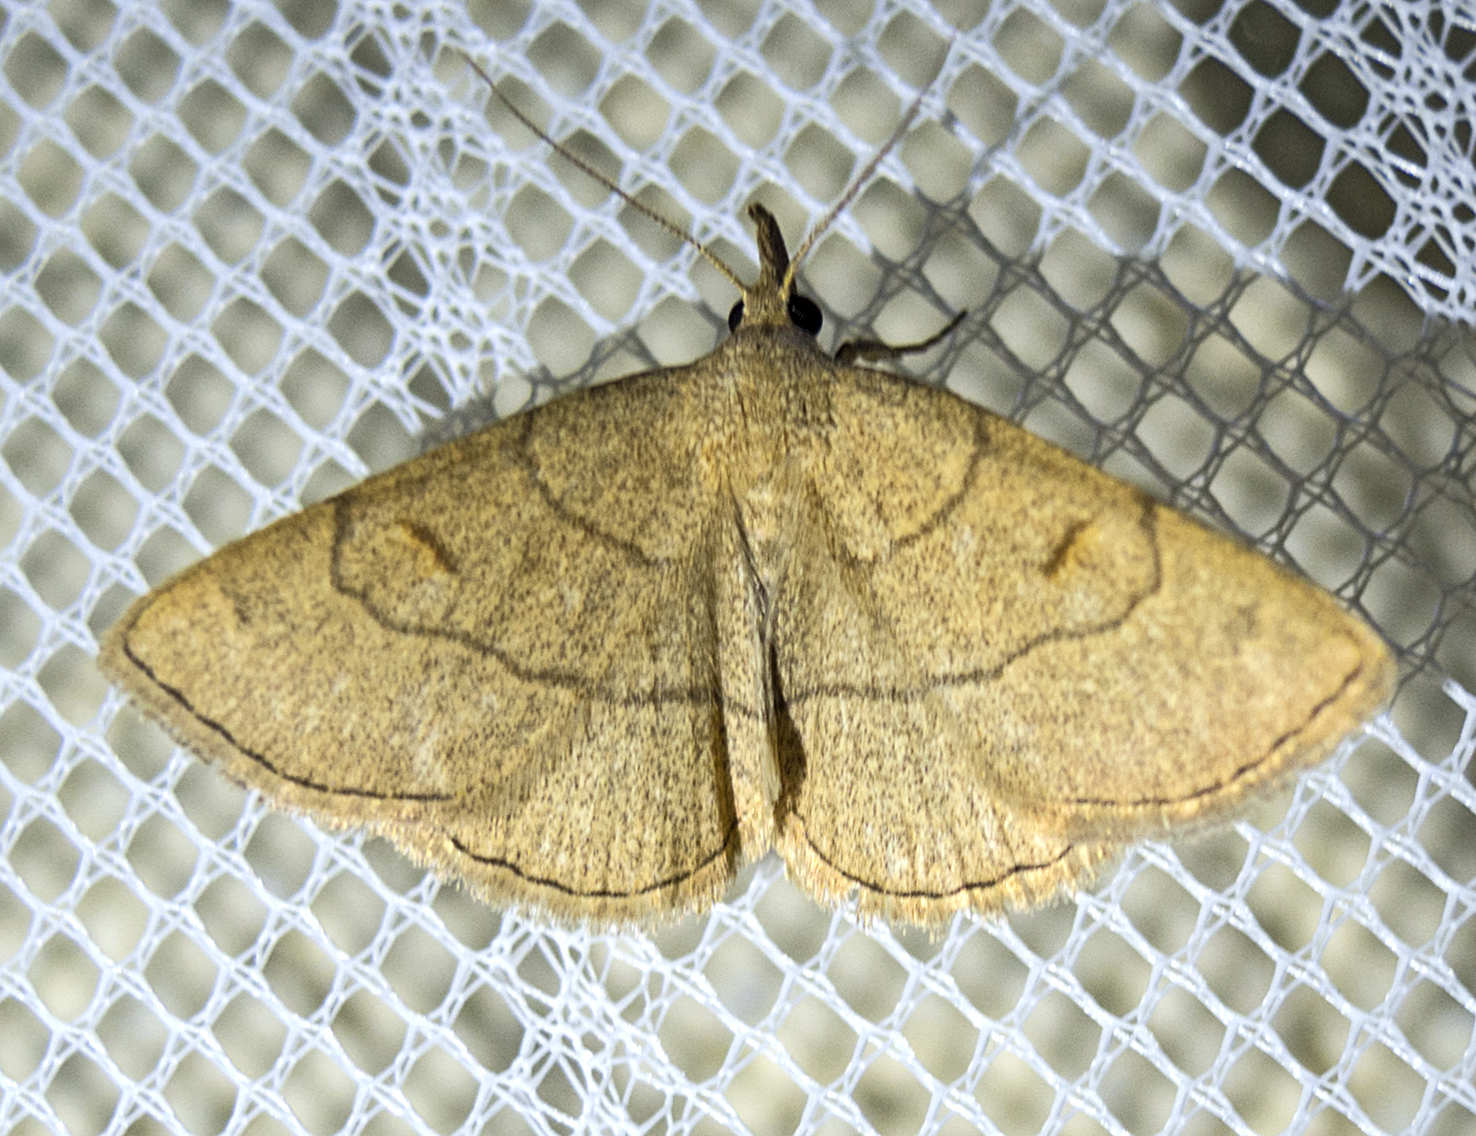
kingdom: Animalia
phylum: Arthropoda
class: Insecta
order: Lepidoptera
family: Erebidae
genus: Paracolax
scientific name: Paracolax tristalis
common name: Clay fan-foot
